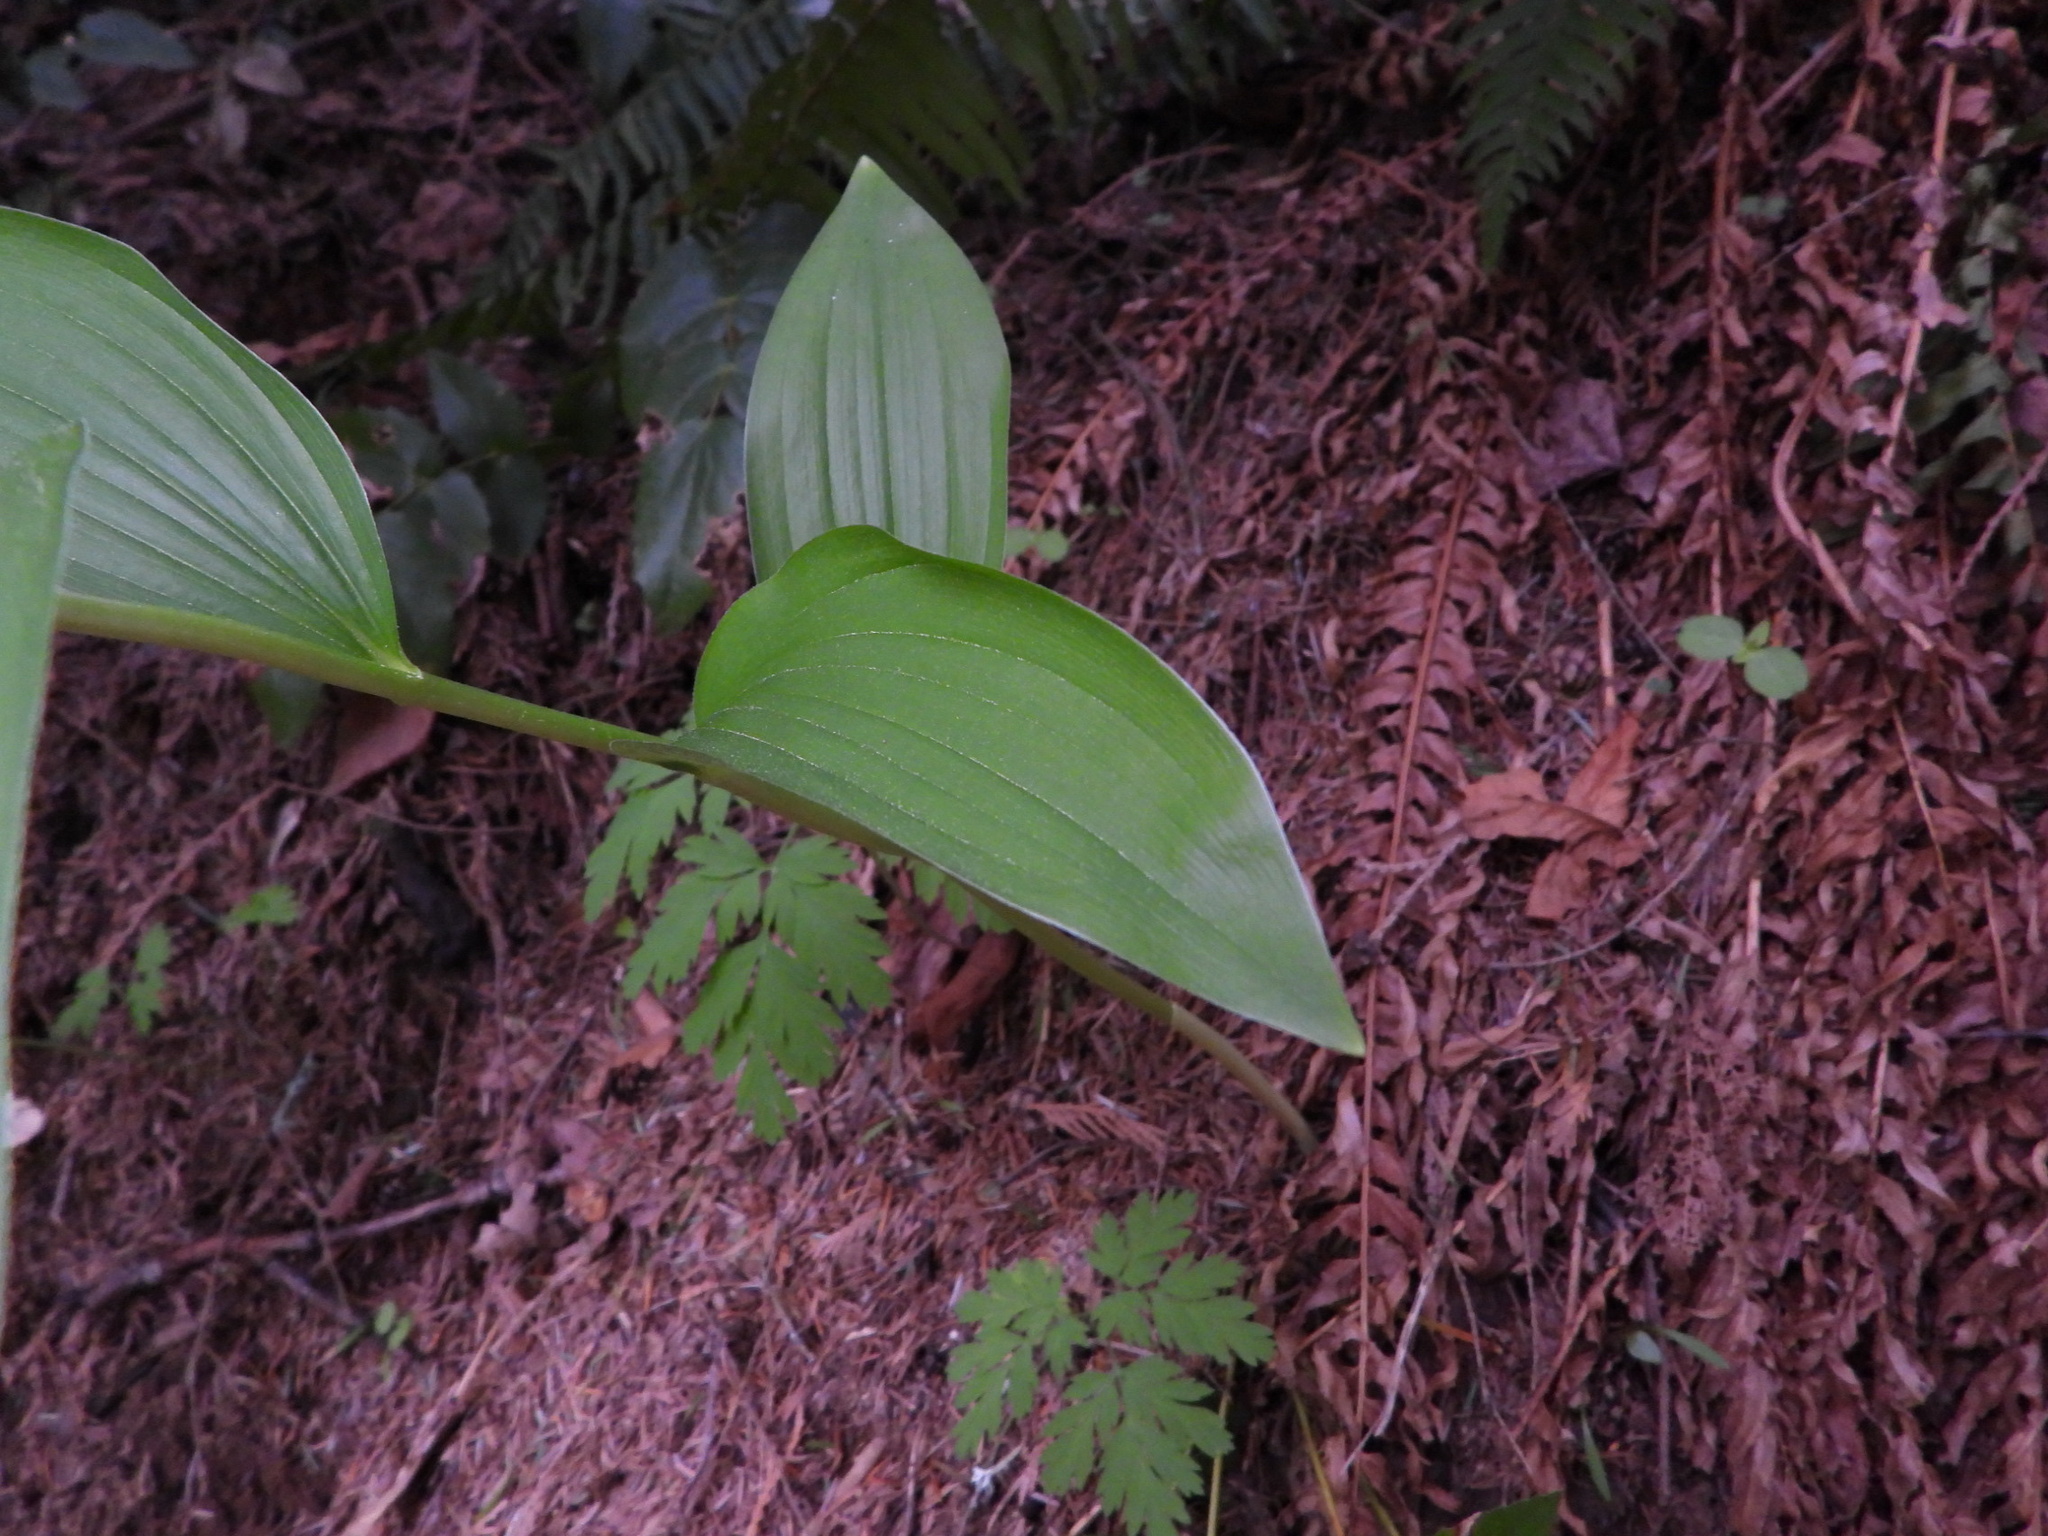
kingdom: Plantae
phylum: Tracheophyta
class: Liliopsida
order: Asparagales
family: Asparagaceae
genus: Maianthemum
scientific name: Maianthemum racemosum
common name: False spikenard
